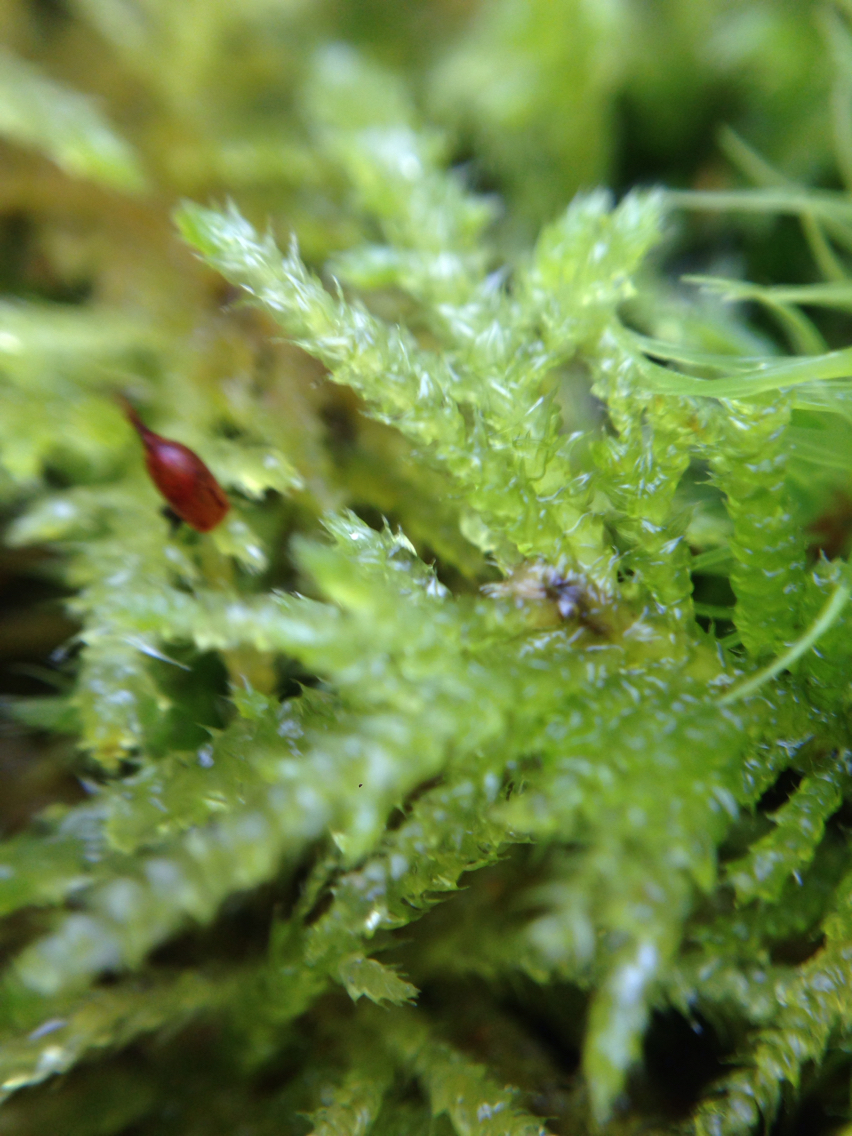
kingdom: Plantae
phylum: Bryophyta
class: Bryopsida
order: Hypnales
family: Brachytheciaceae
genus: Kindbergia
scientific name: Kindbergia oregana
